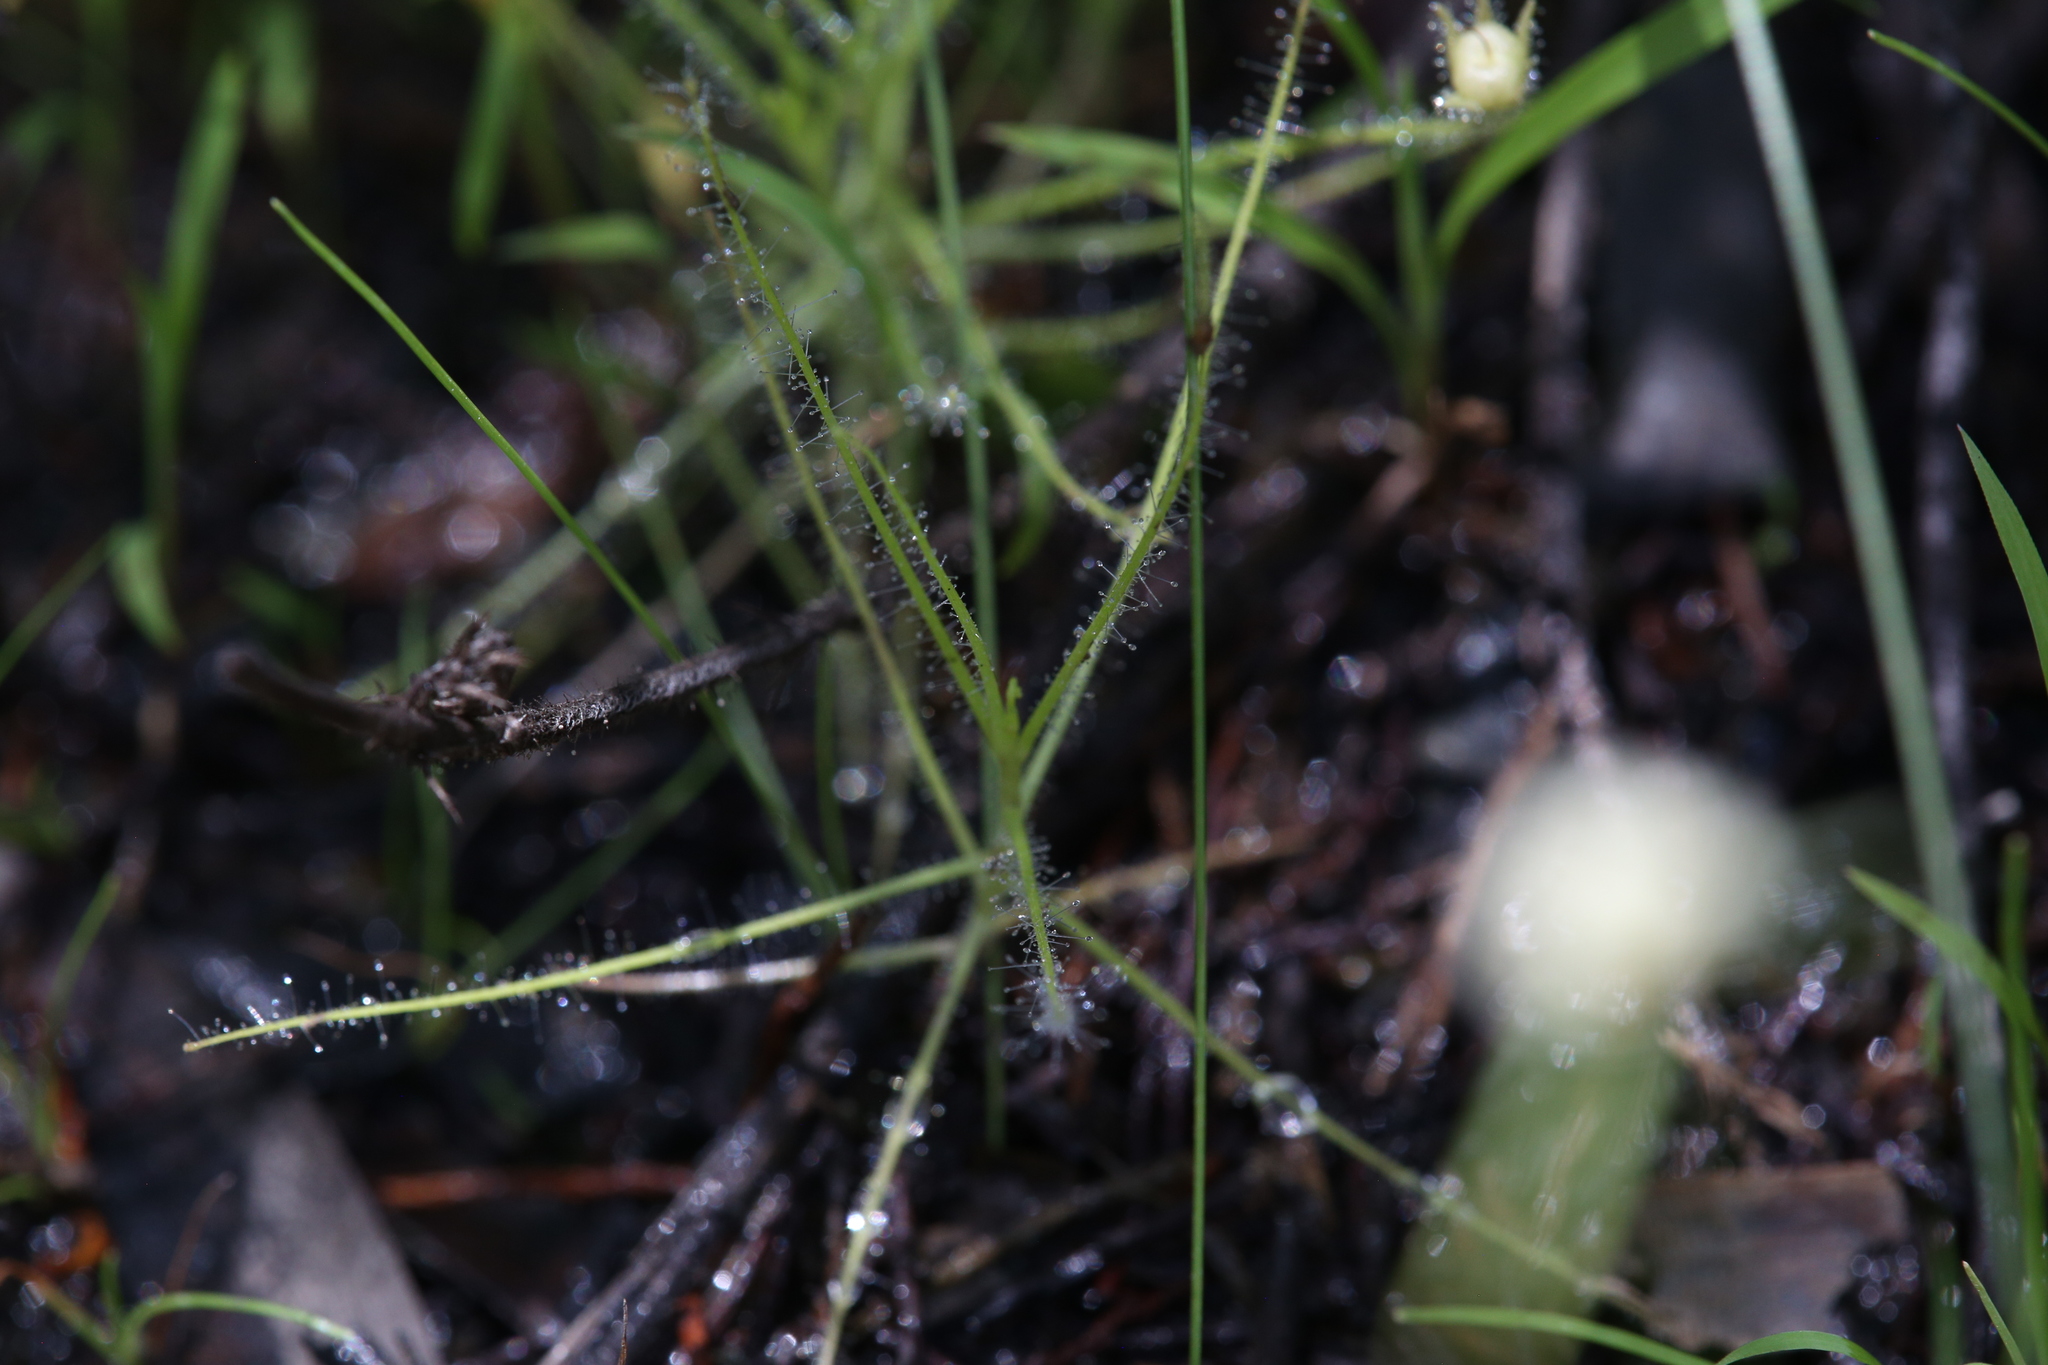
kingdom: Plantae
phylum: Tracheophyta
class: Magnoliopsida
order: Lamiales
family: Byblidaceae
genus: Byblis
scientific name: Byblis liniflora
